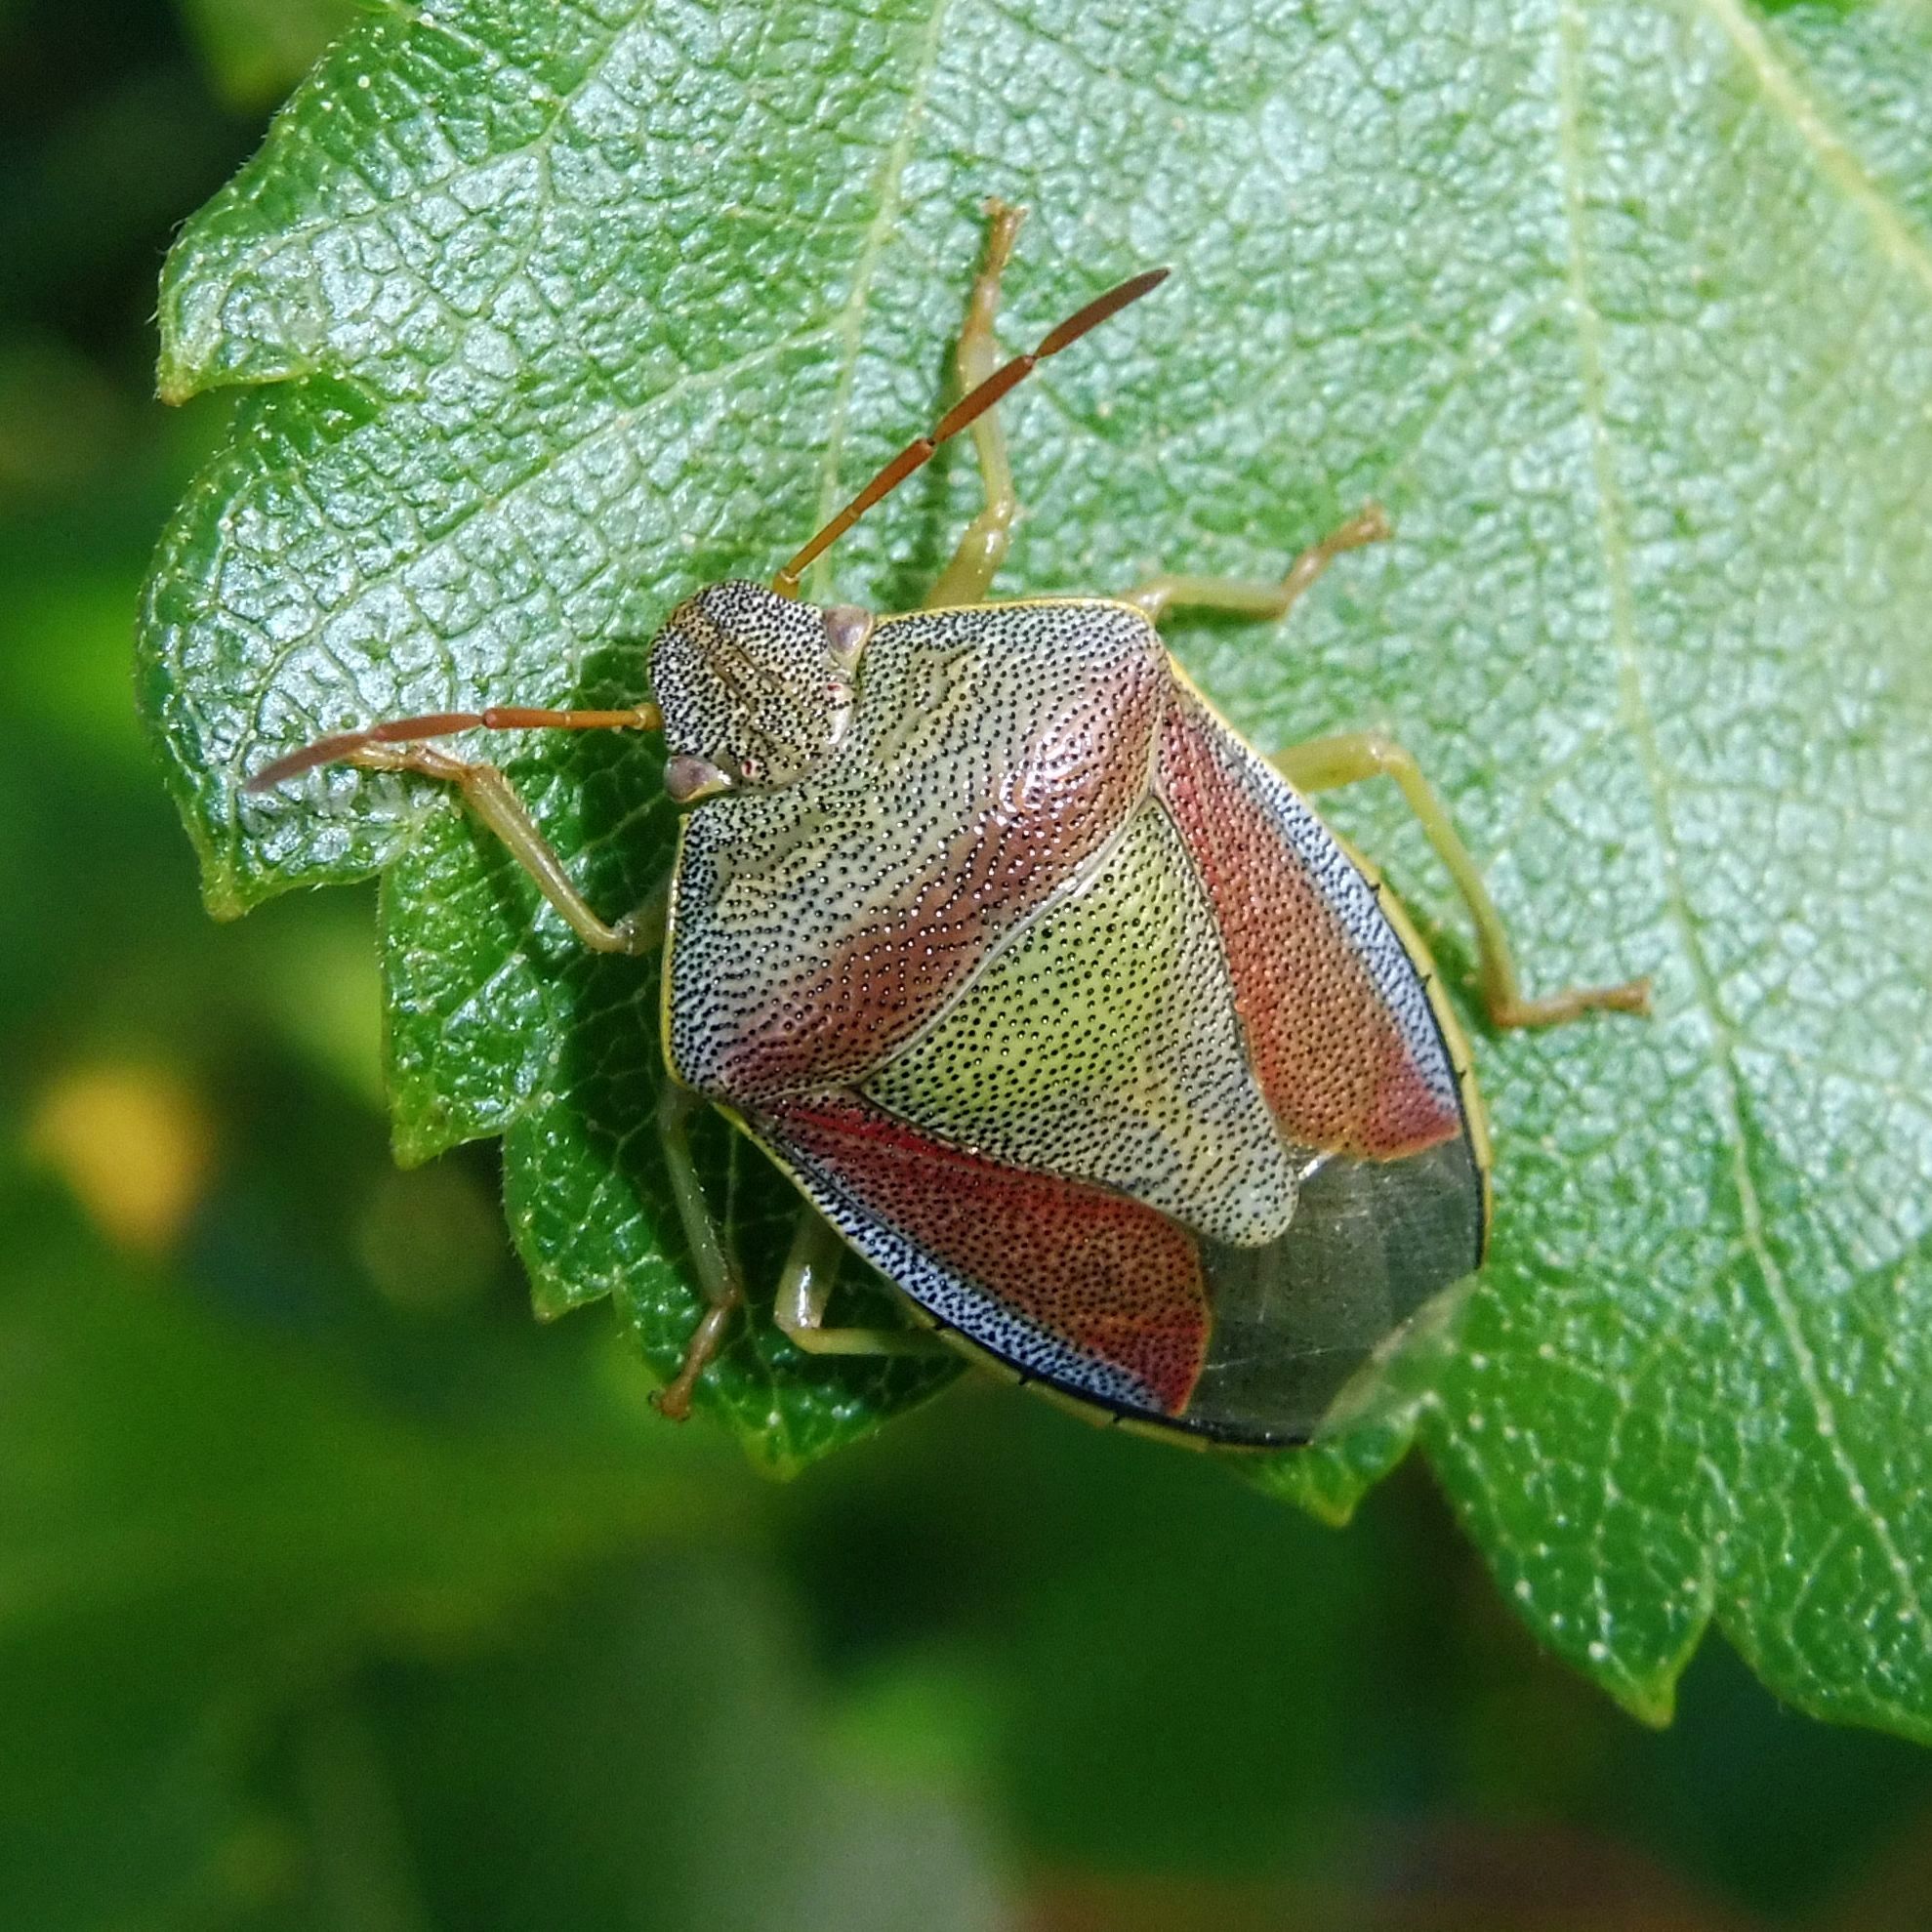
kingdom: Animalia
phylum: Arthropoda
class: Insecta
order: Hemiptera
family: Pentatomidae
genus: Piezodorus
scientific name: Piezodorus lituratus
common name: Stink bug
